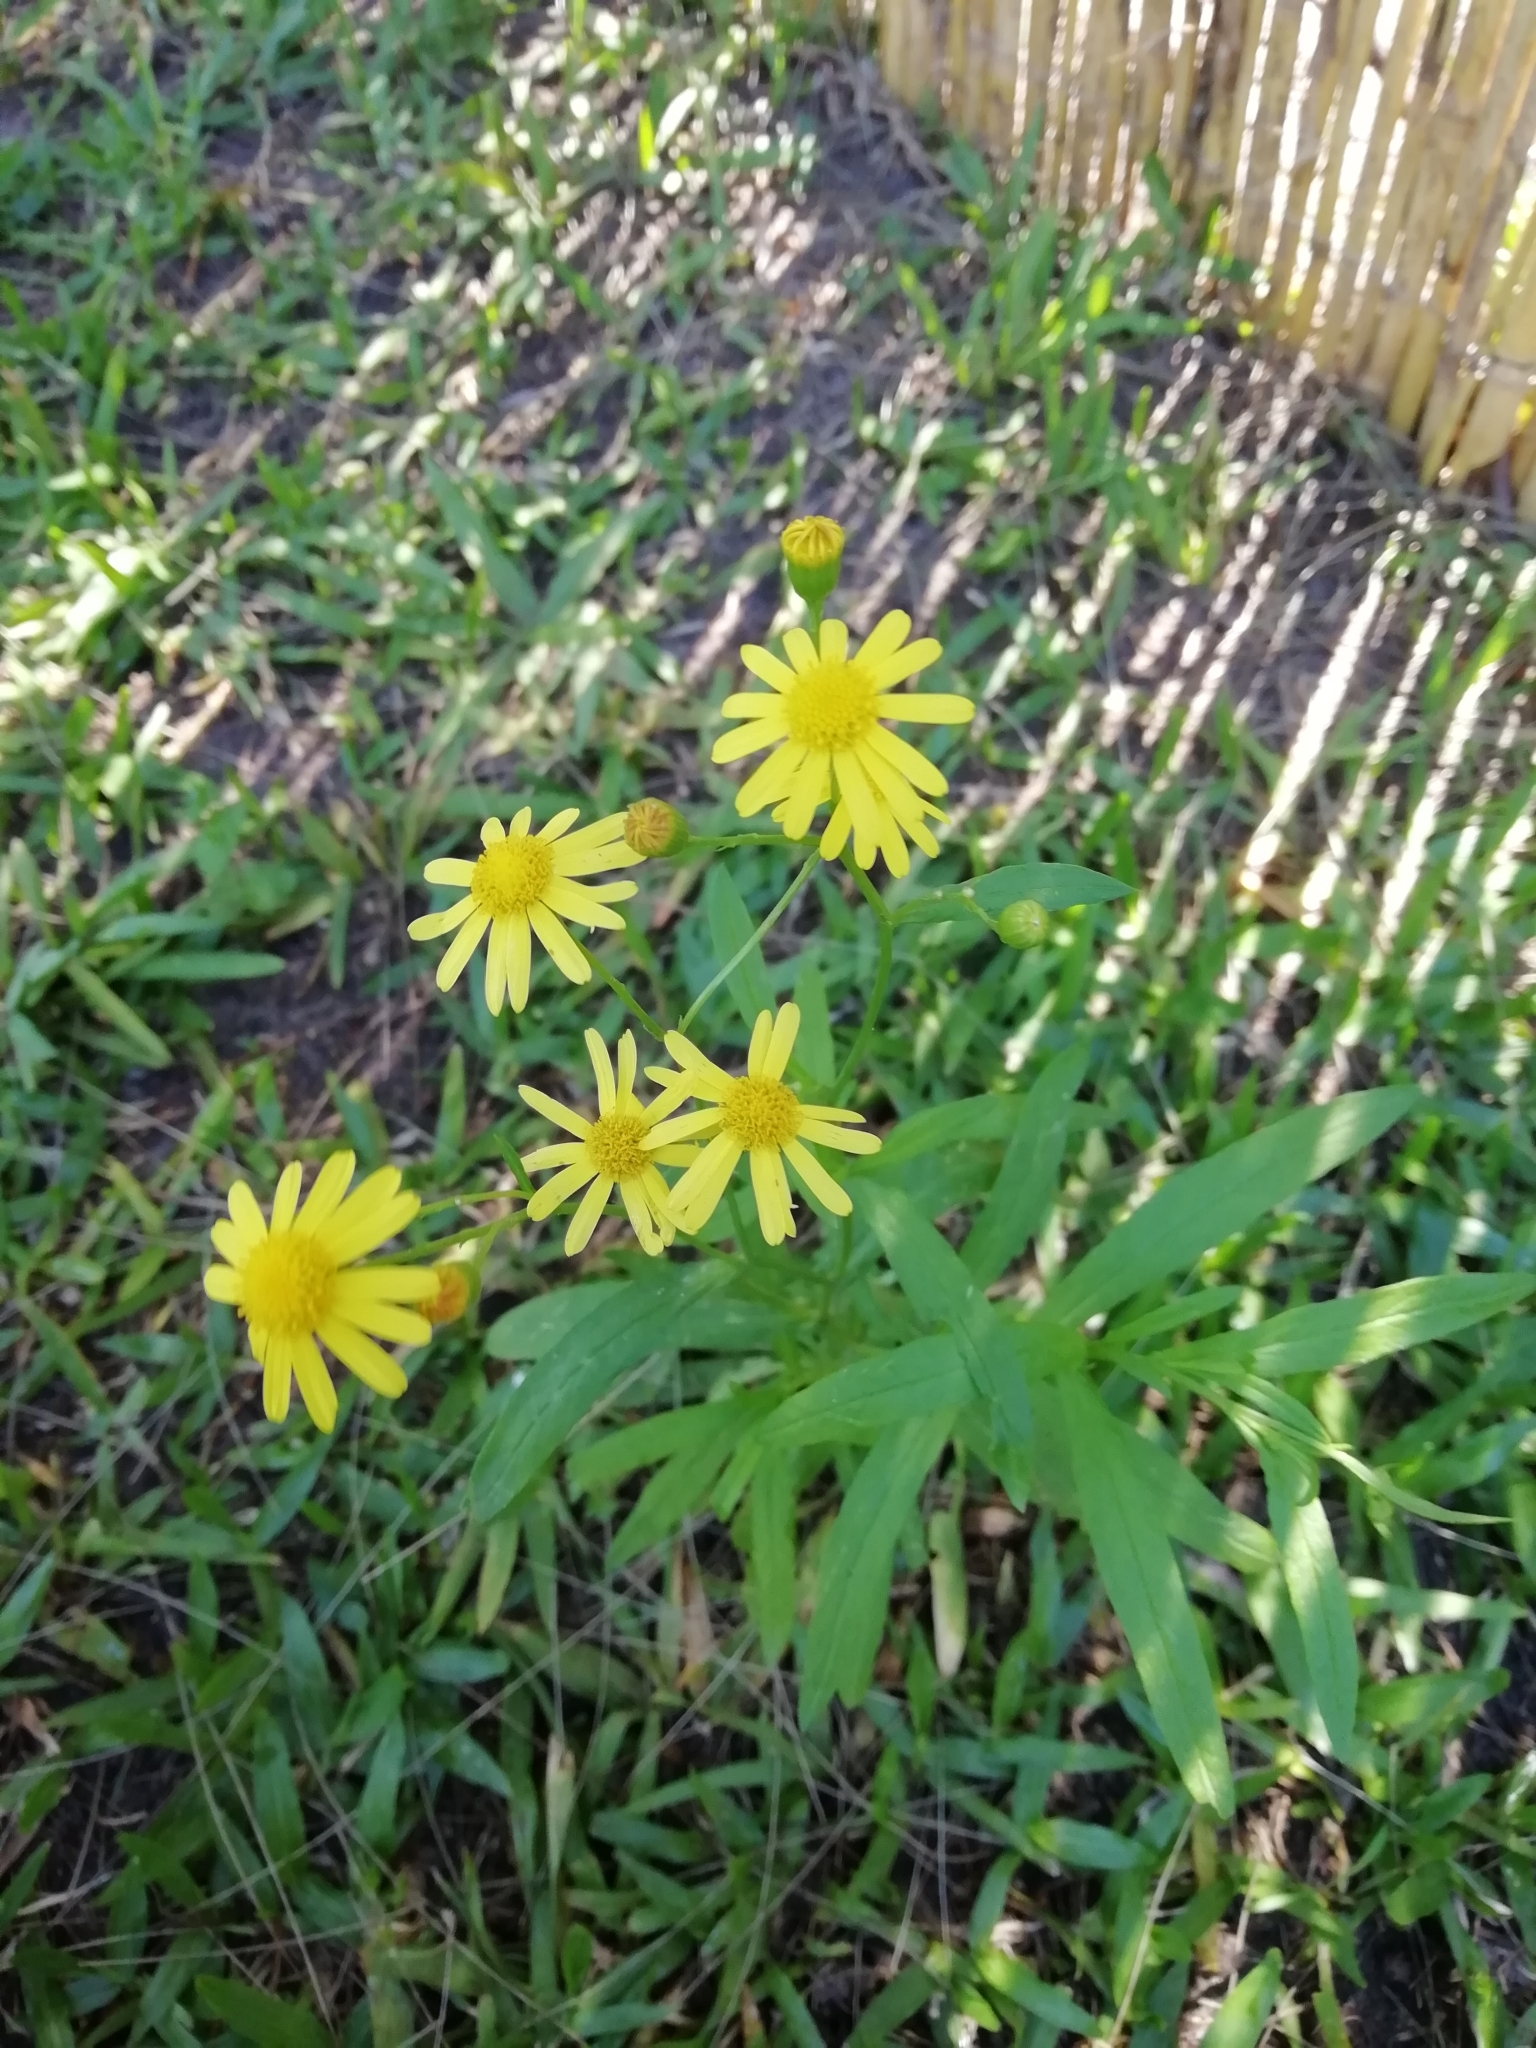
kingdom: Plantae
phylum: Tracheophyta
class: Magnoliopsida
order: Asterales
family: Asteraceae
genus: Senecio
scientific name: Senecio madagascariensis
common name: Madagascar ragwort
